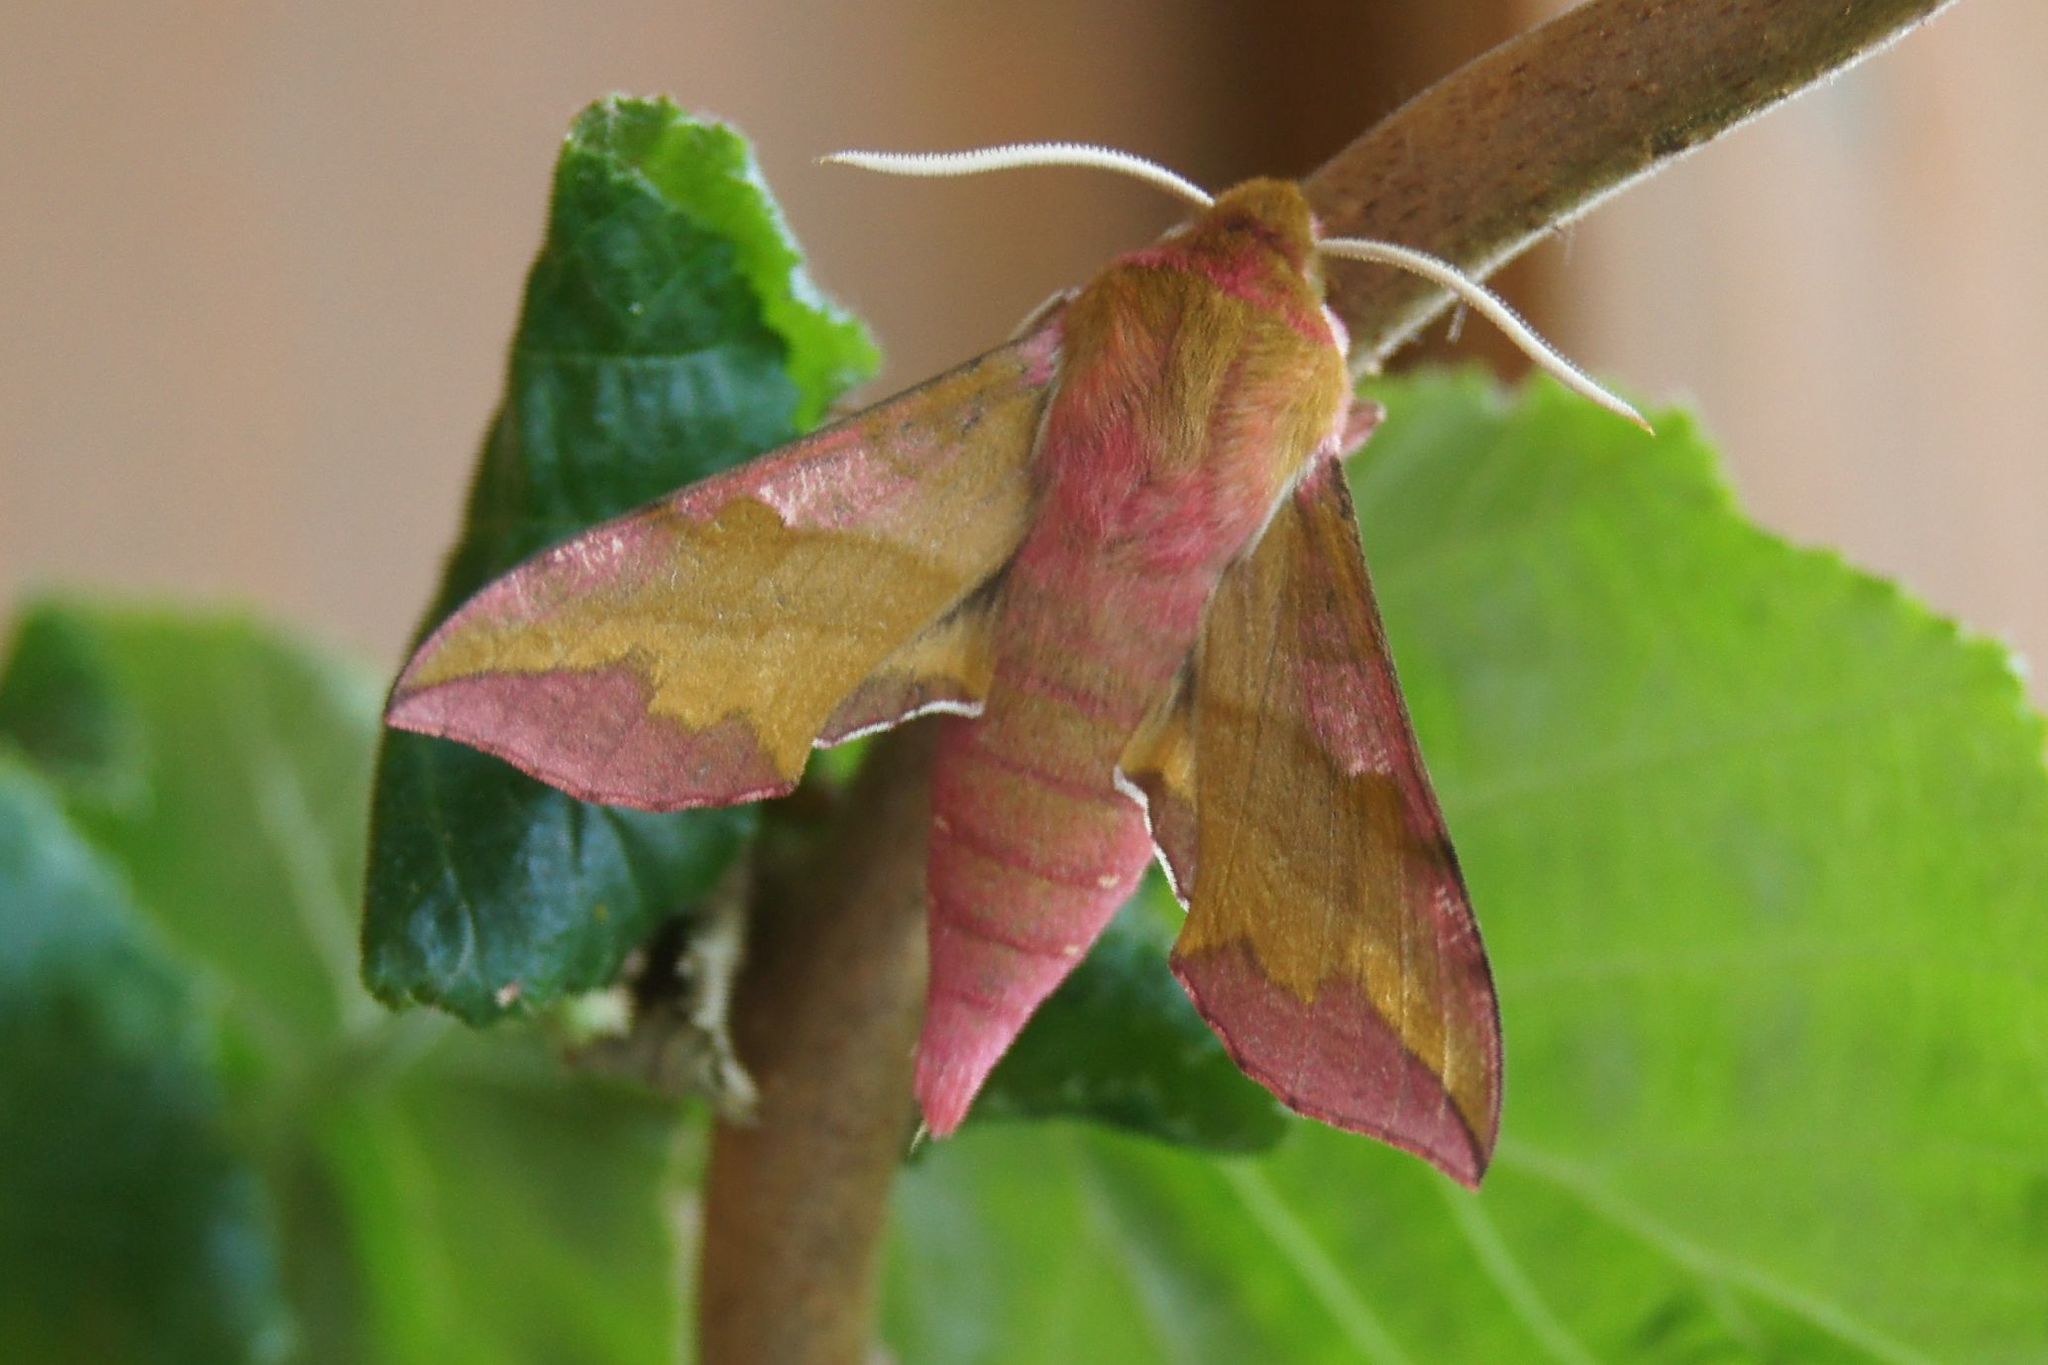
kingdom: Animalia
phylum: Arthropoda
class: Insecta
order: Lepidoptera
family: Sphingidae
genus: Deilephila
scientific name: Deilephila porcellus
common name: Small elephant hawk-moth
